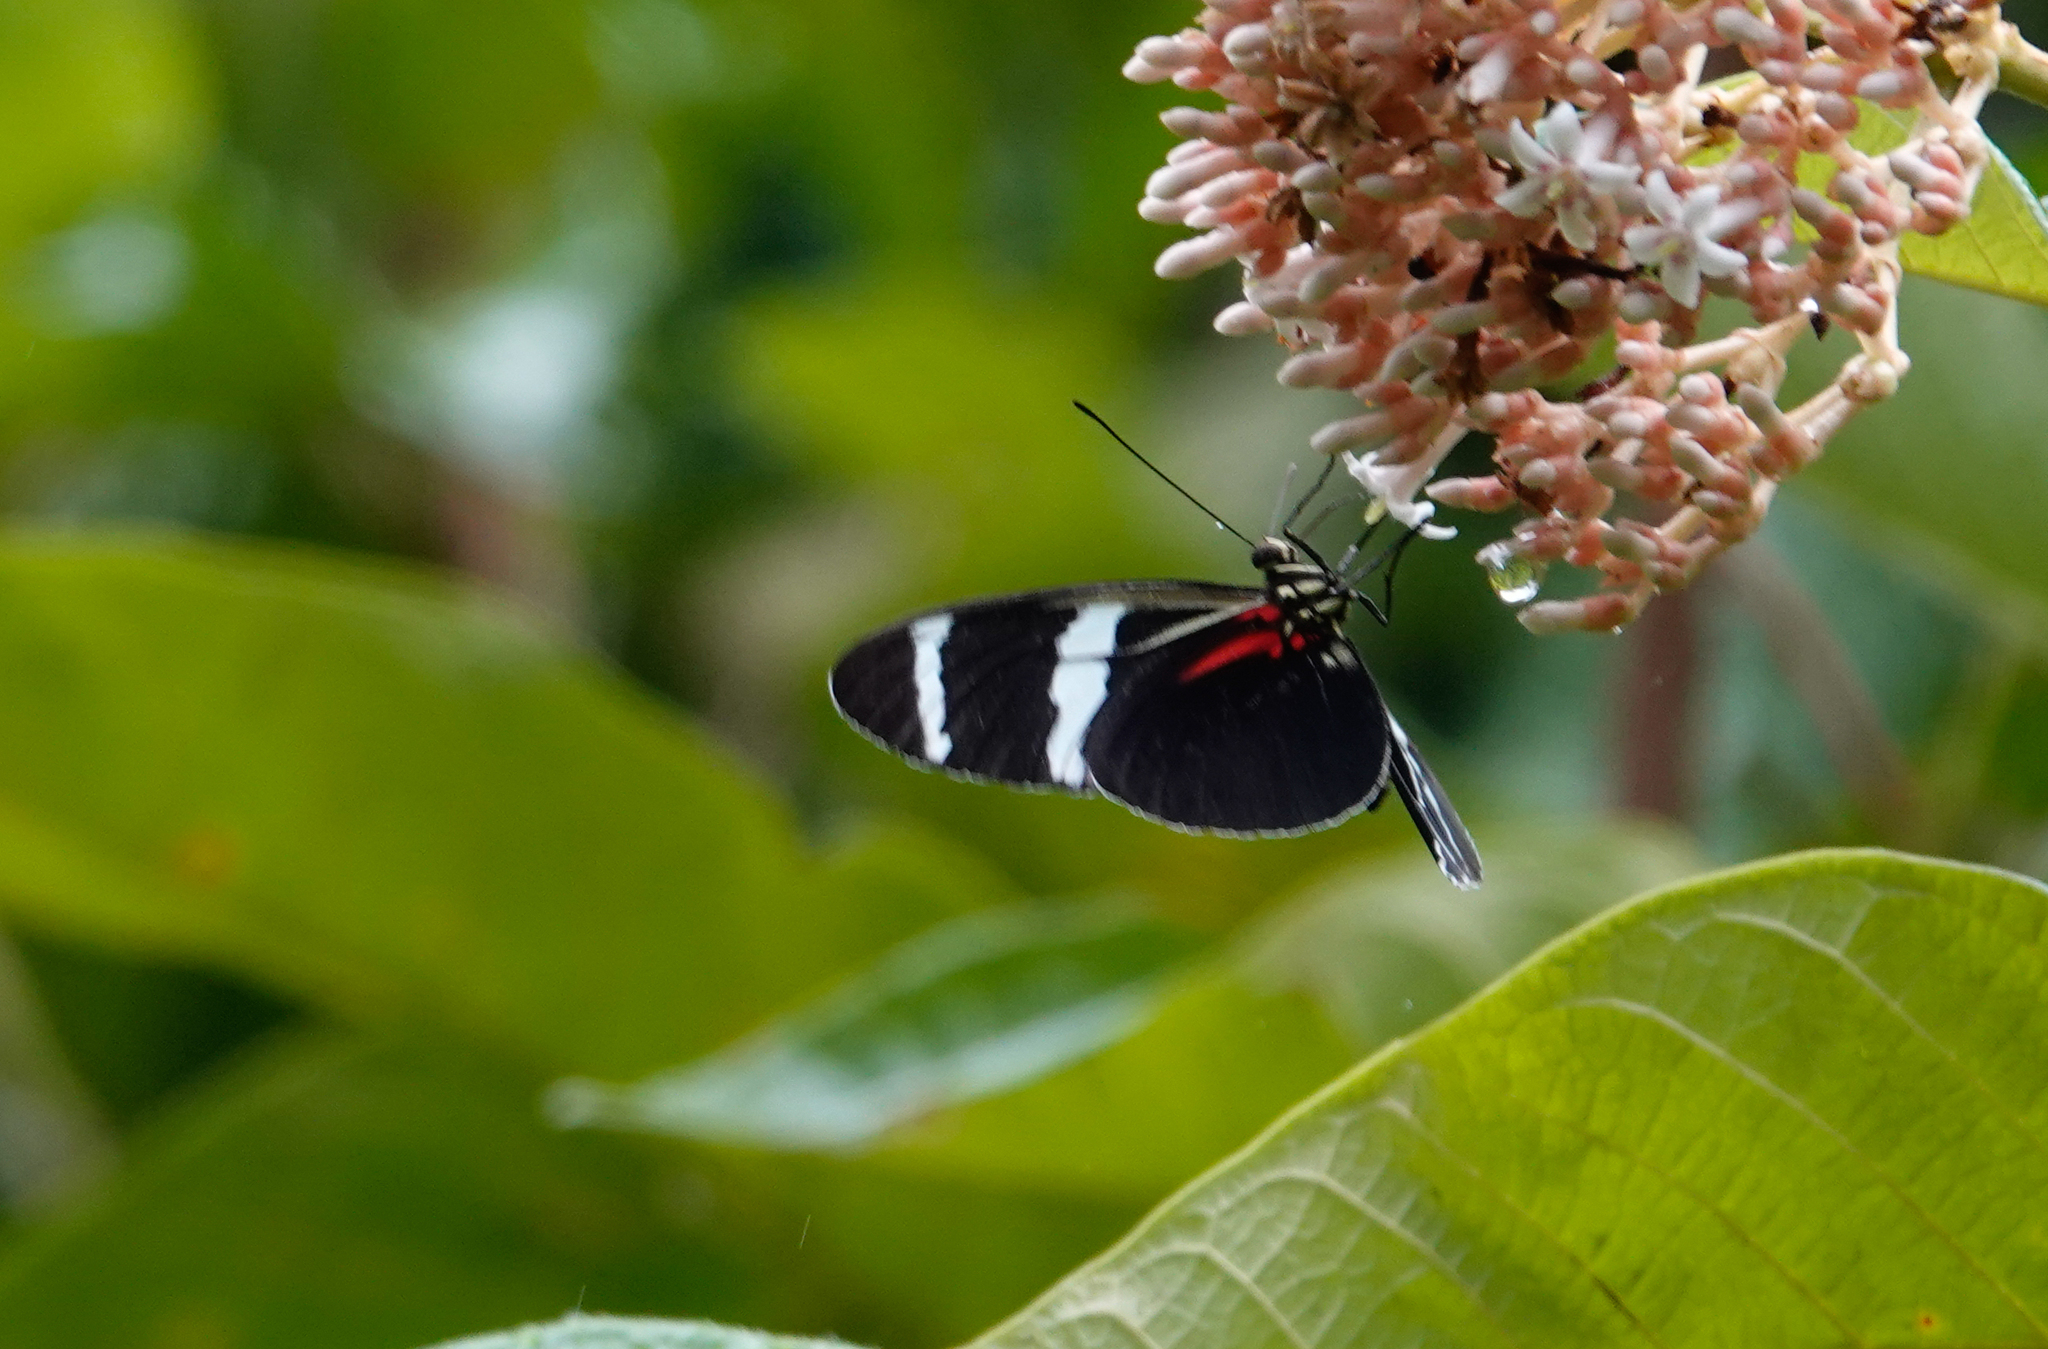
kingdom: Animalia
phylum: Arthropoda
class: Insecta
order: Lepidoptera
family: Nymphalidae
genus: Heliconius
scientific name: Heliconius antiochus
